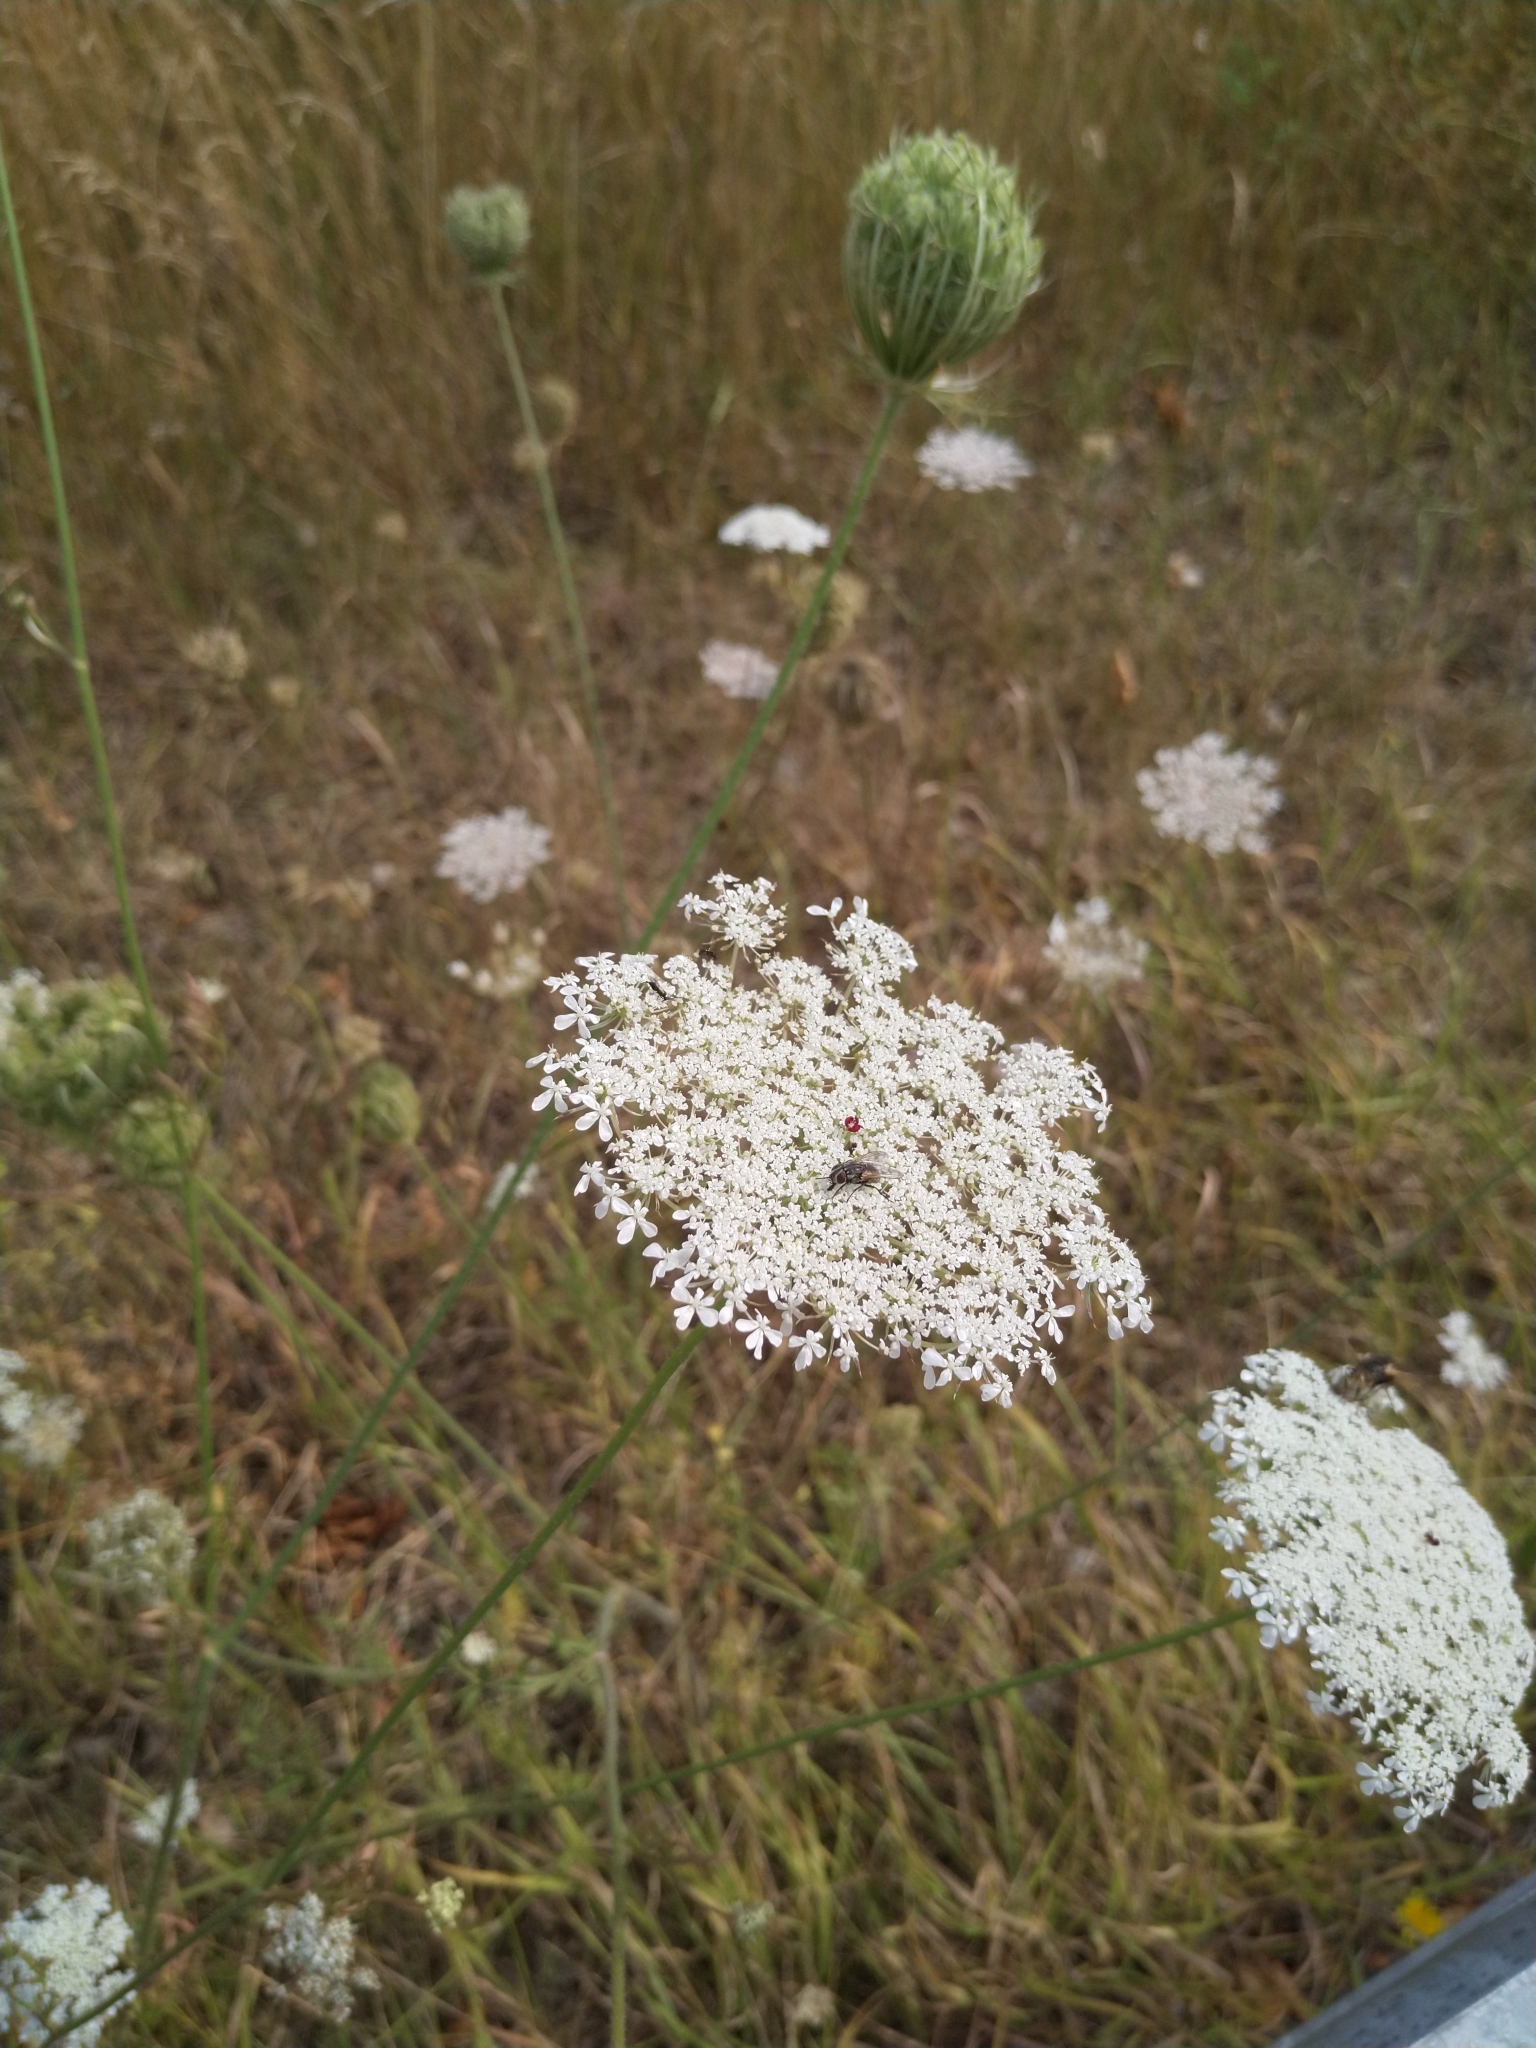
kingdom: Plantae
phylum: Tracheophyta
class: Magnoliopsida
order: Apiales
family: Apiaceae
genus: Daucus
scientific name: Daucus carota
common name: Wild carrot
